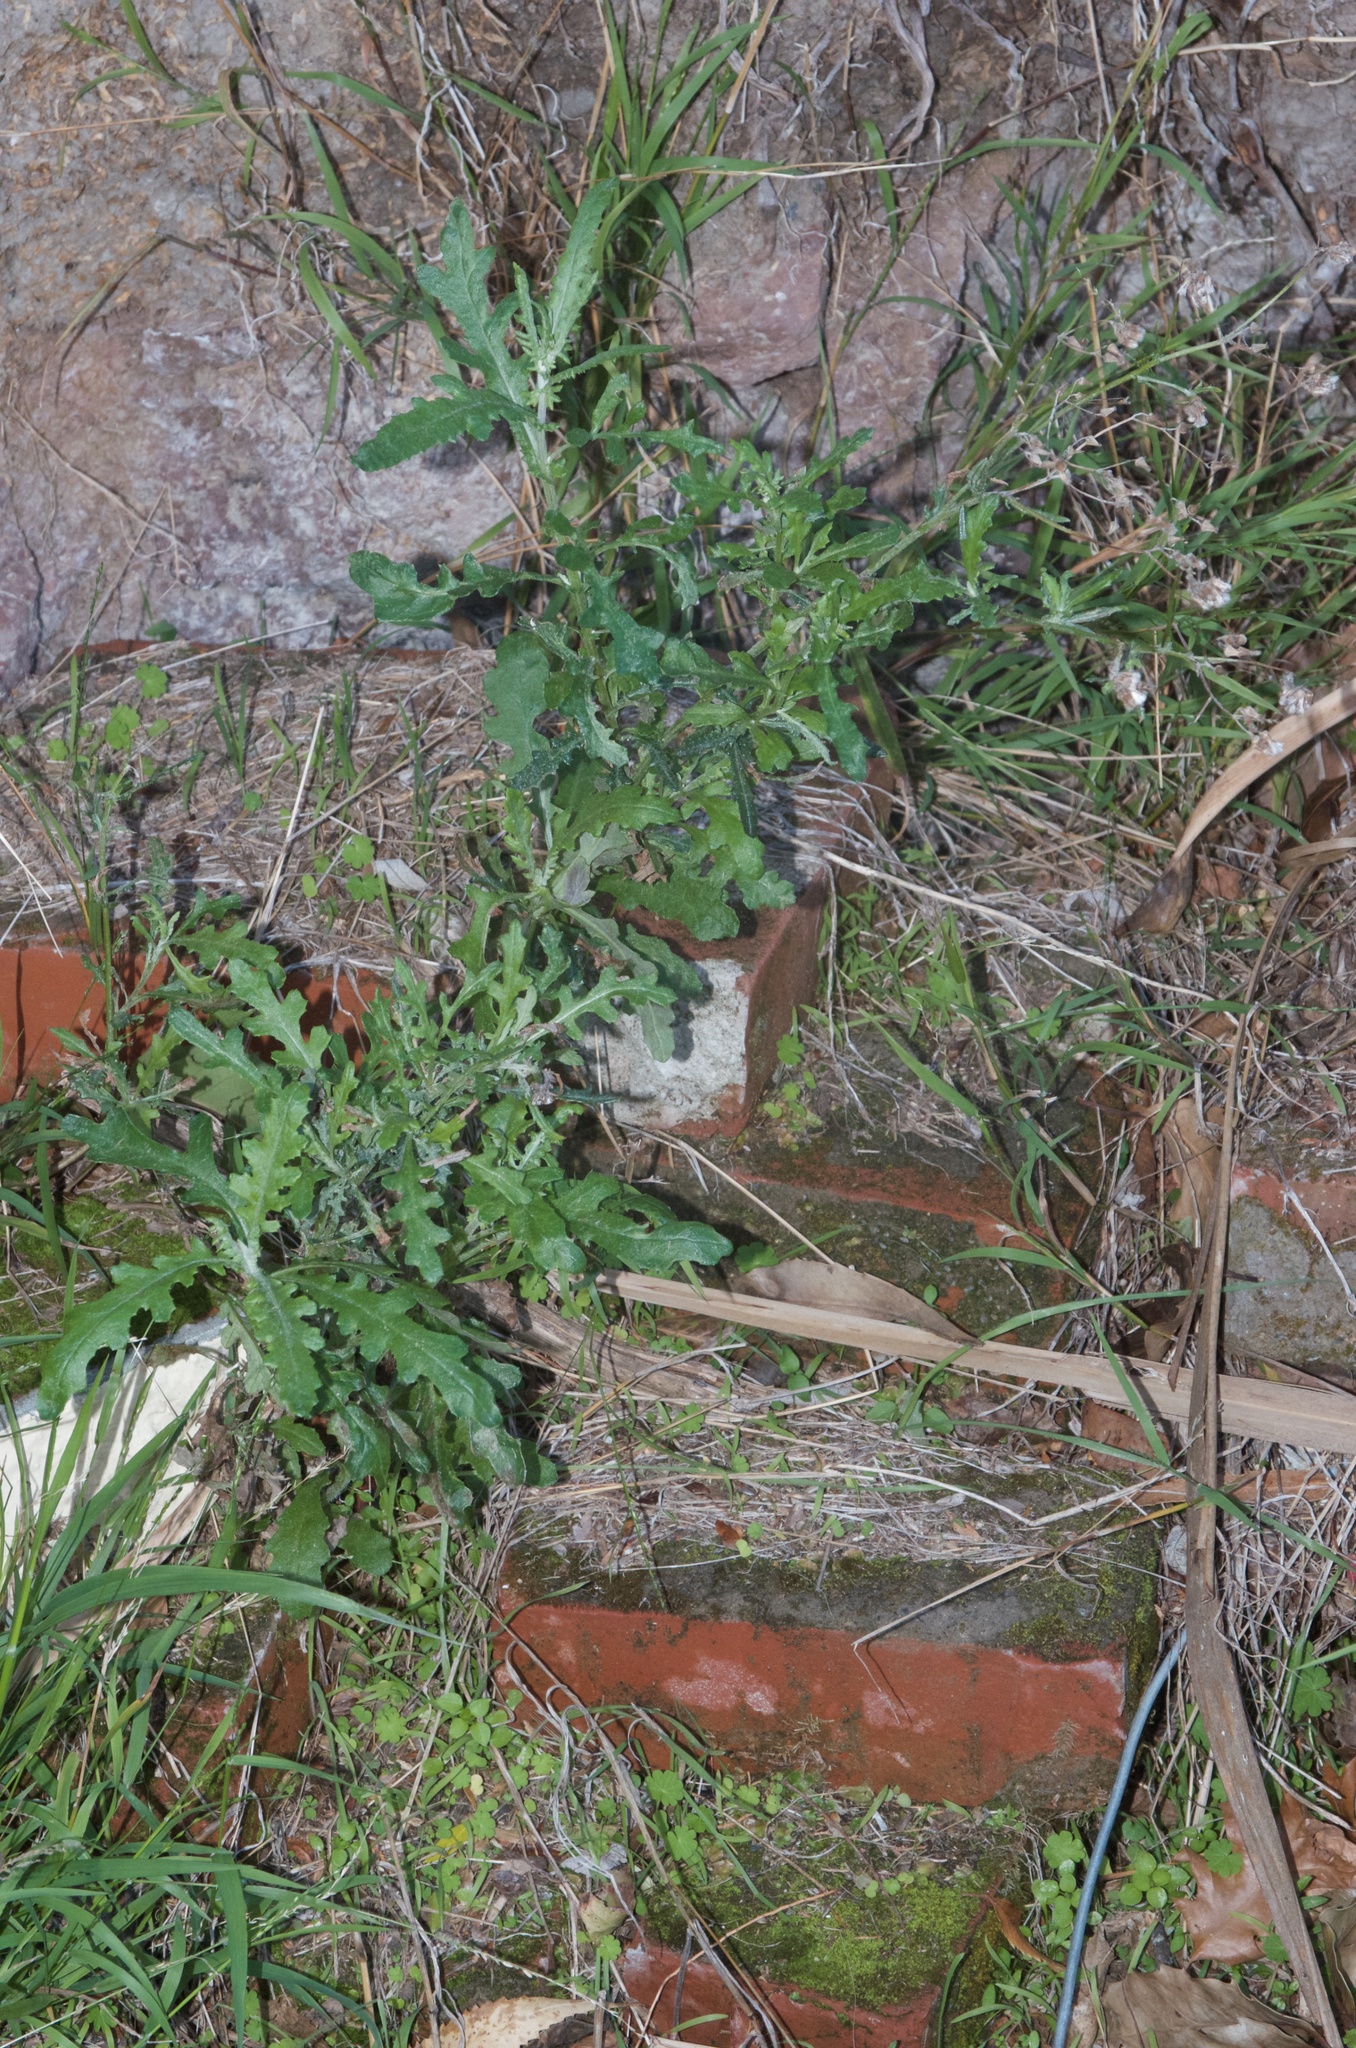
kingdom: Plantae
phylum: Tracheophyta
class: Magnoliopsida
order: Asterales
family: Asteraceae
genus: Senecio
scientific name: Senecio glomeratus
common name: Cutleaf burnweed
